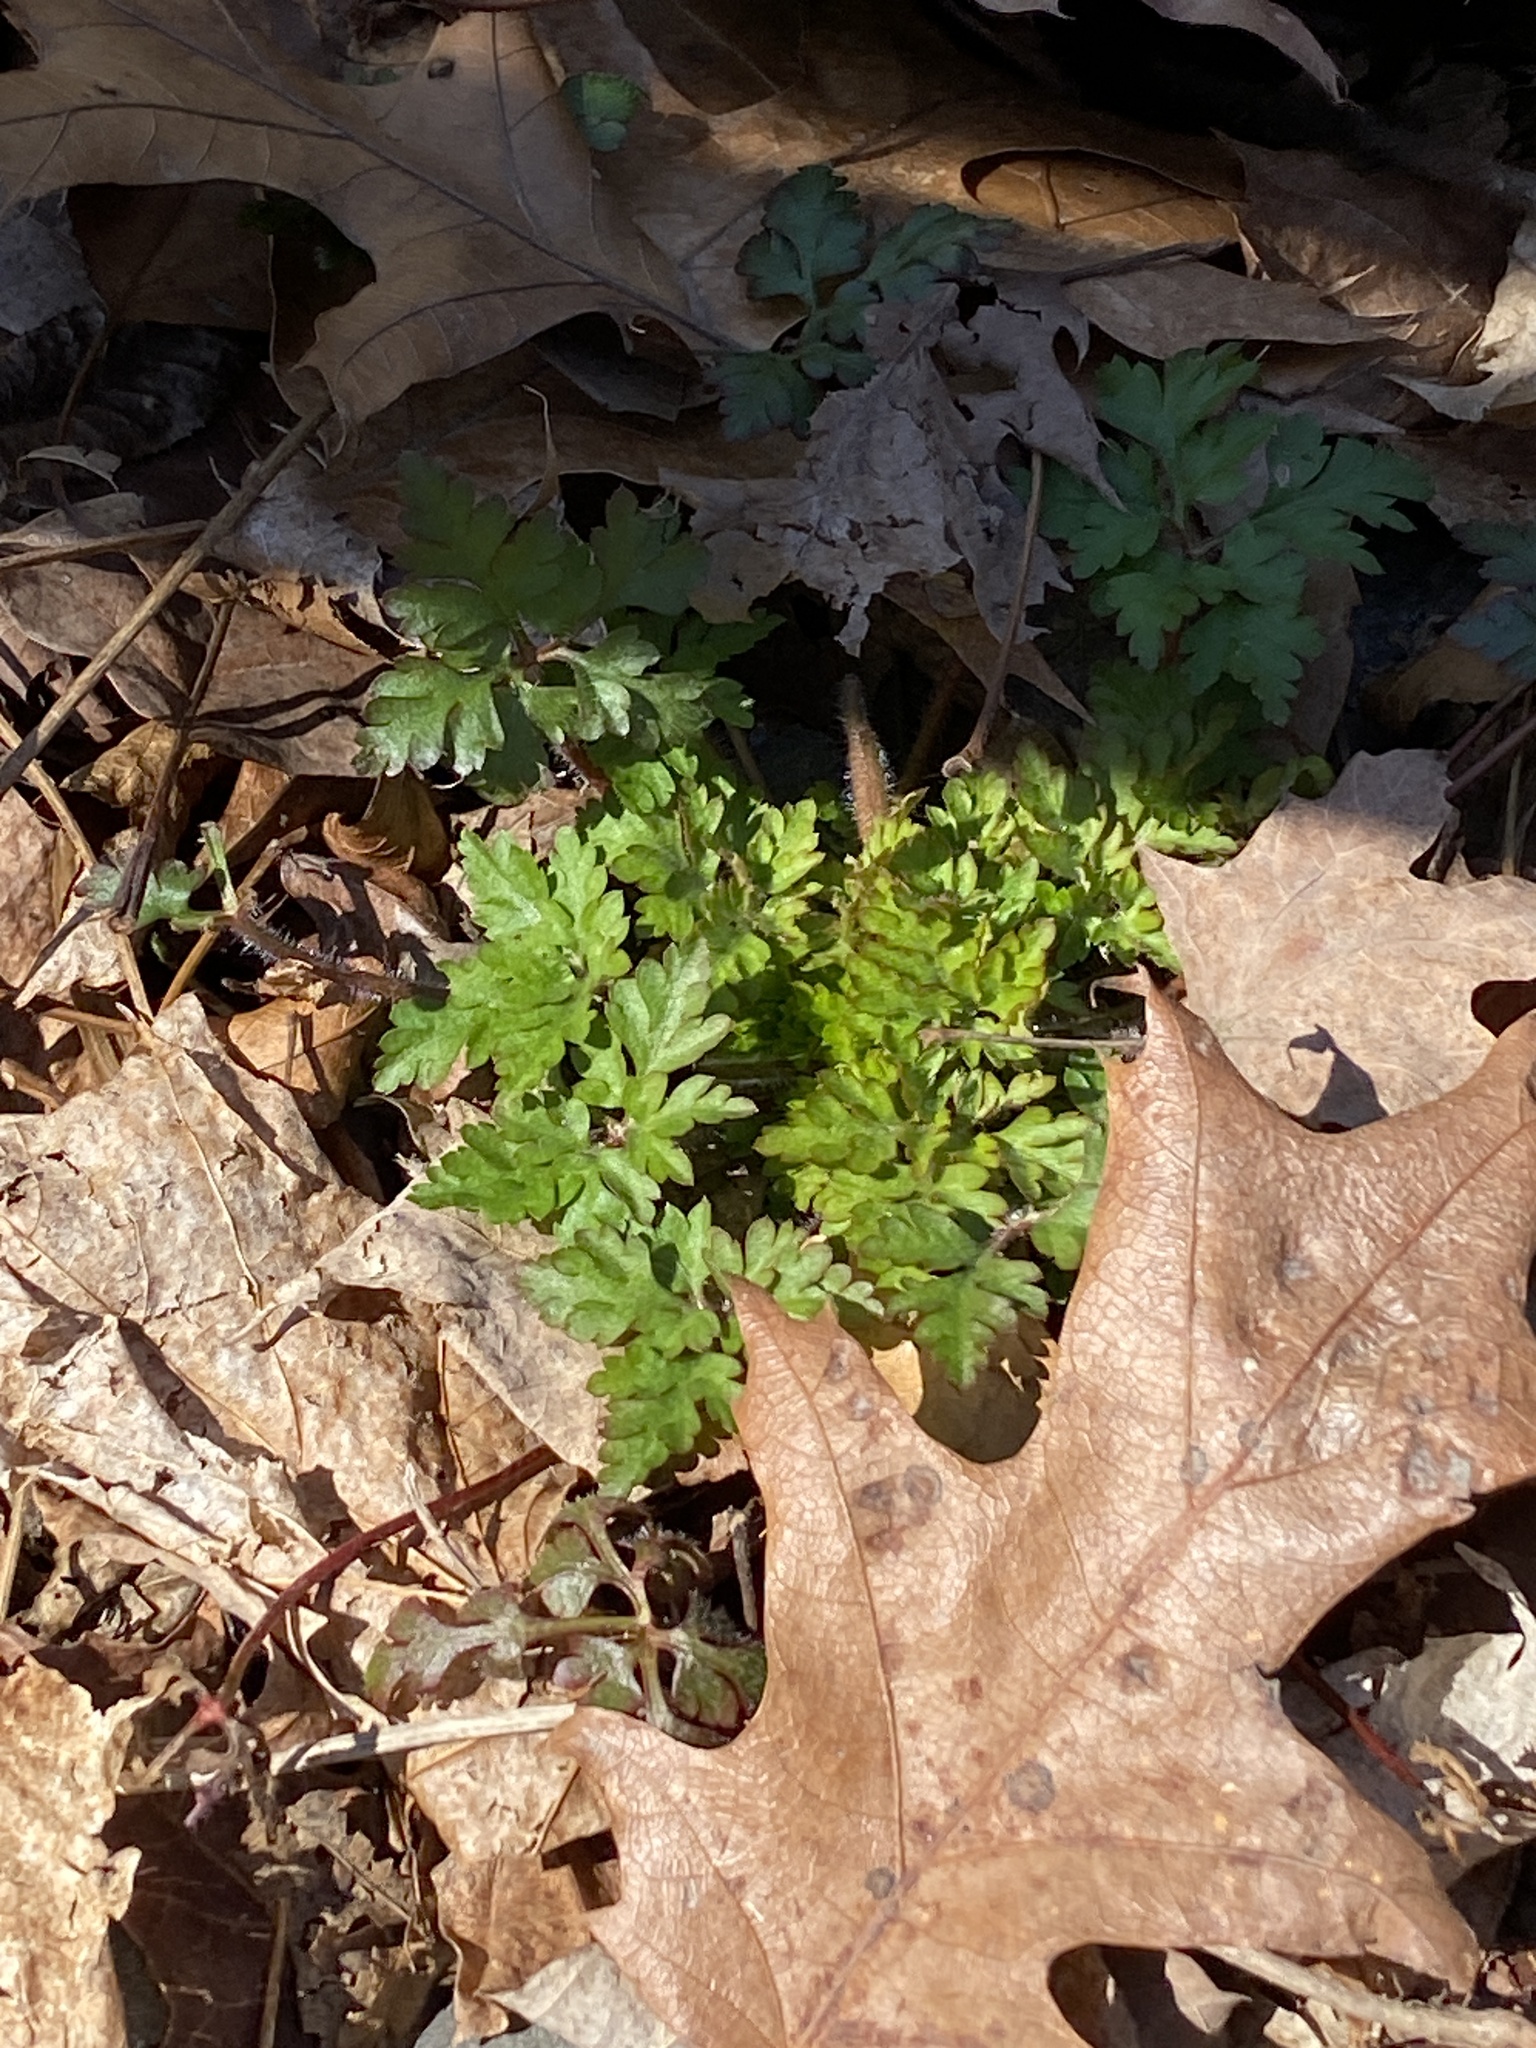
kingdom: Plantae
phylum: Tracheophyta
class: Magnoliopsida
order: Geraniales
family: Geraniaceae
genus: Geranium
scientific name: Geranium robertianum
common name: Herb-robert
